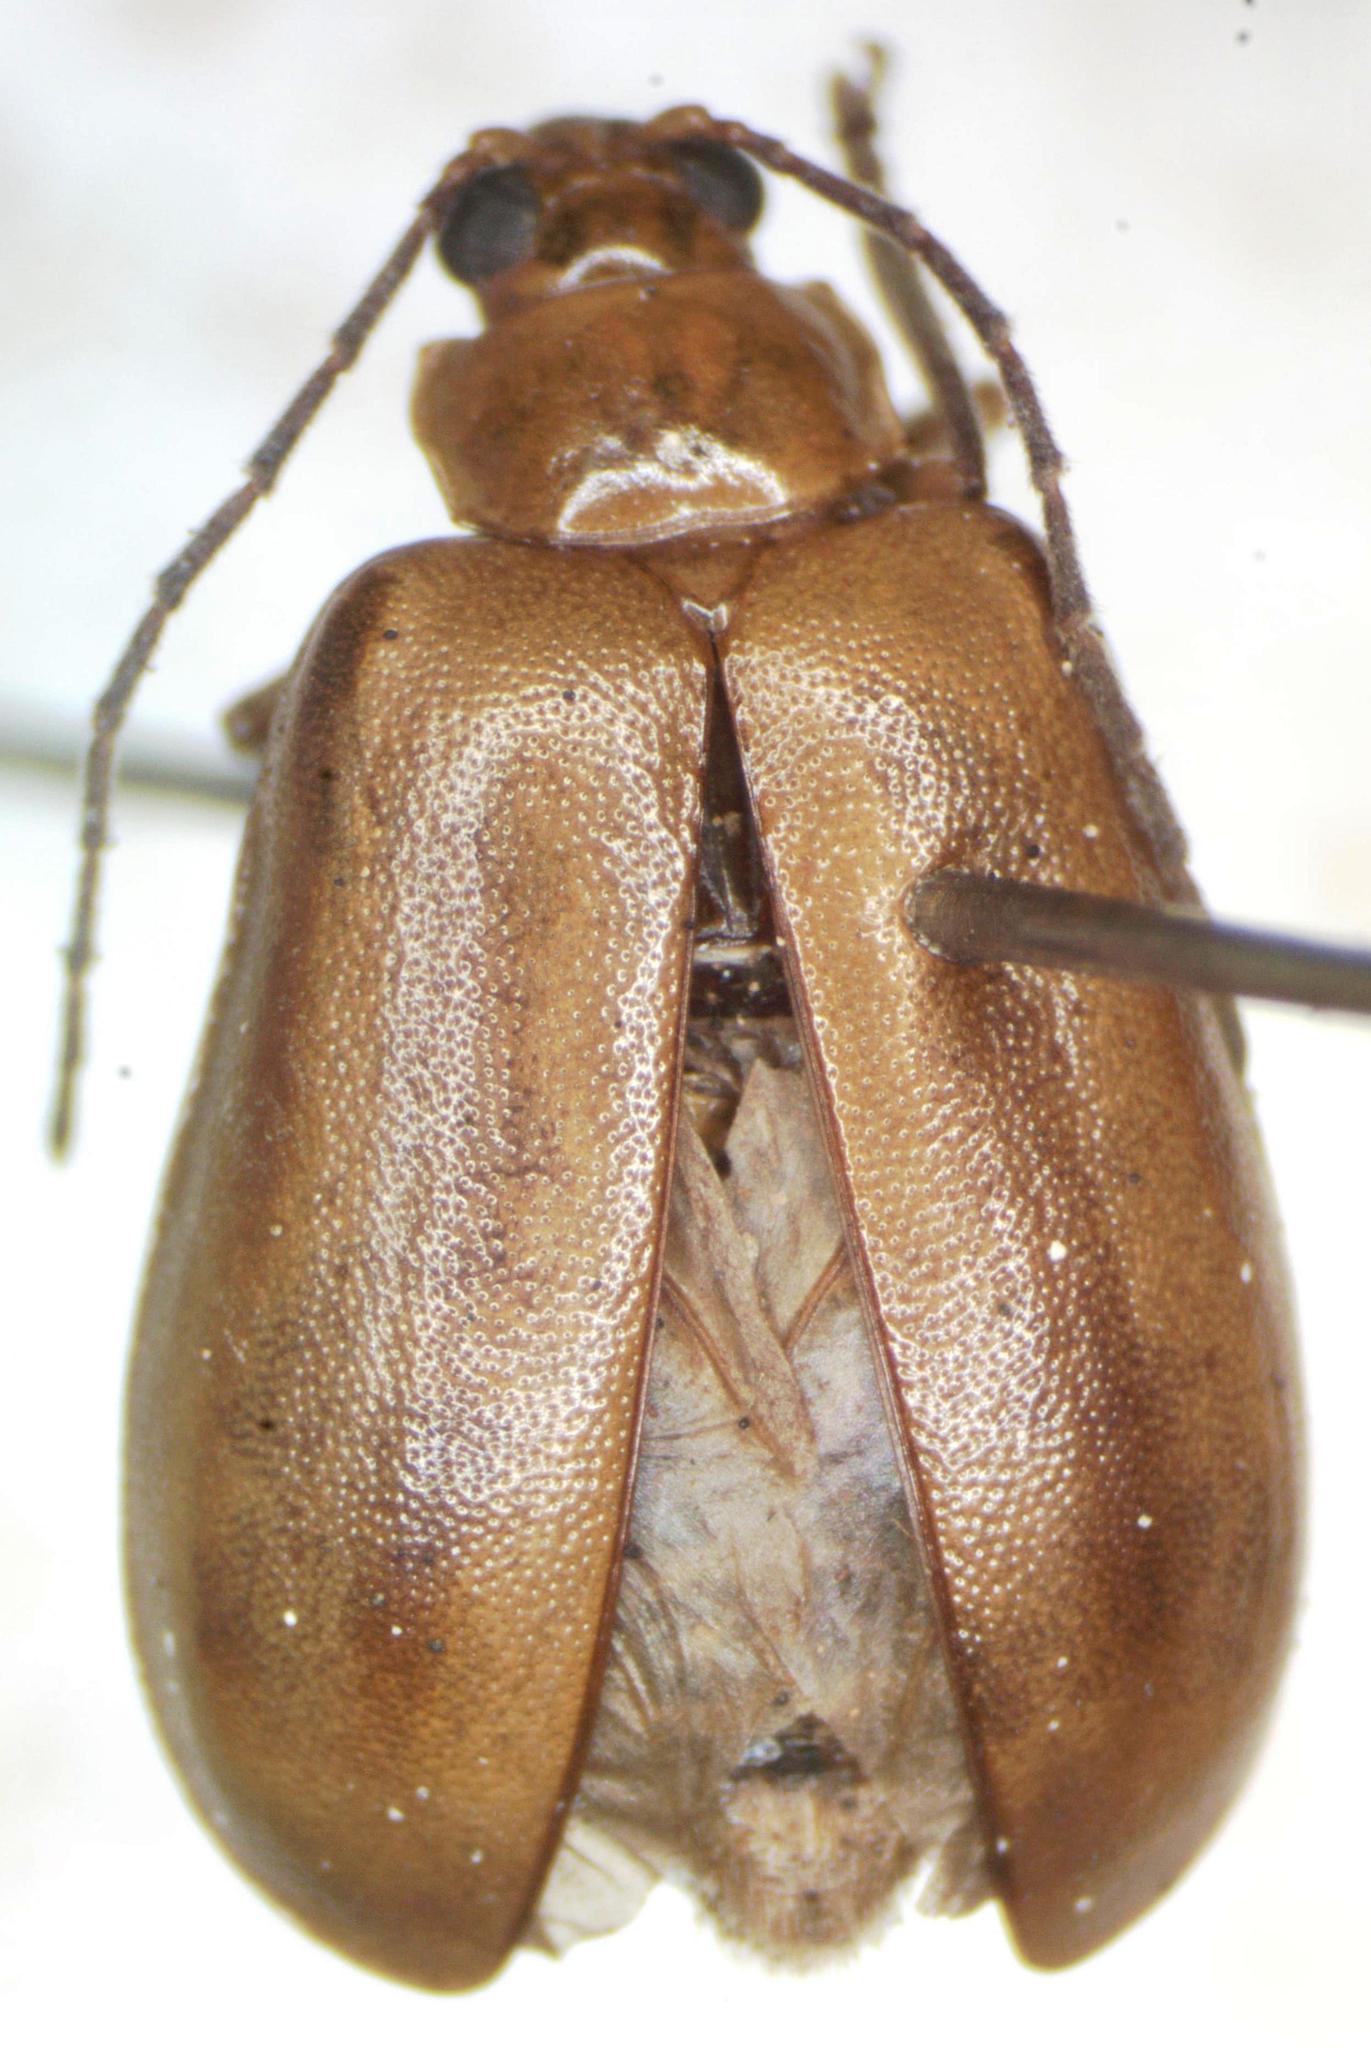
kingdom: Animalia
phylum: Arthropoda
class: Insecta
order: Coleoptera
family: Chrysomelidae
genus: Pyesia
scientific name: Pyesia detrita
